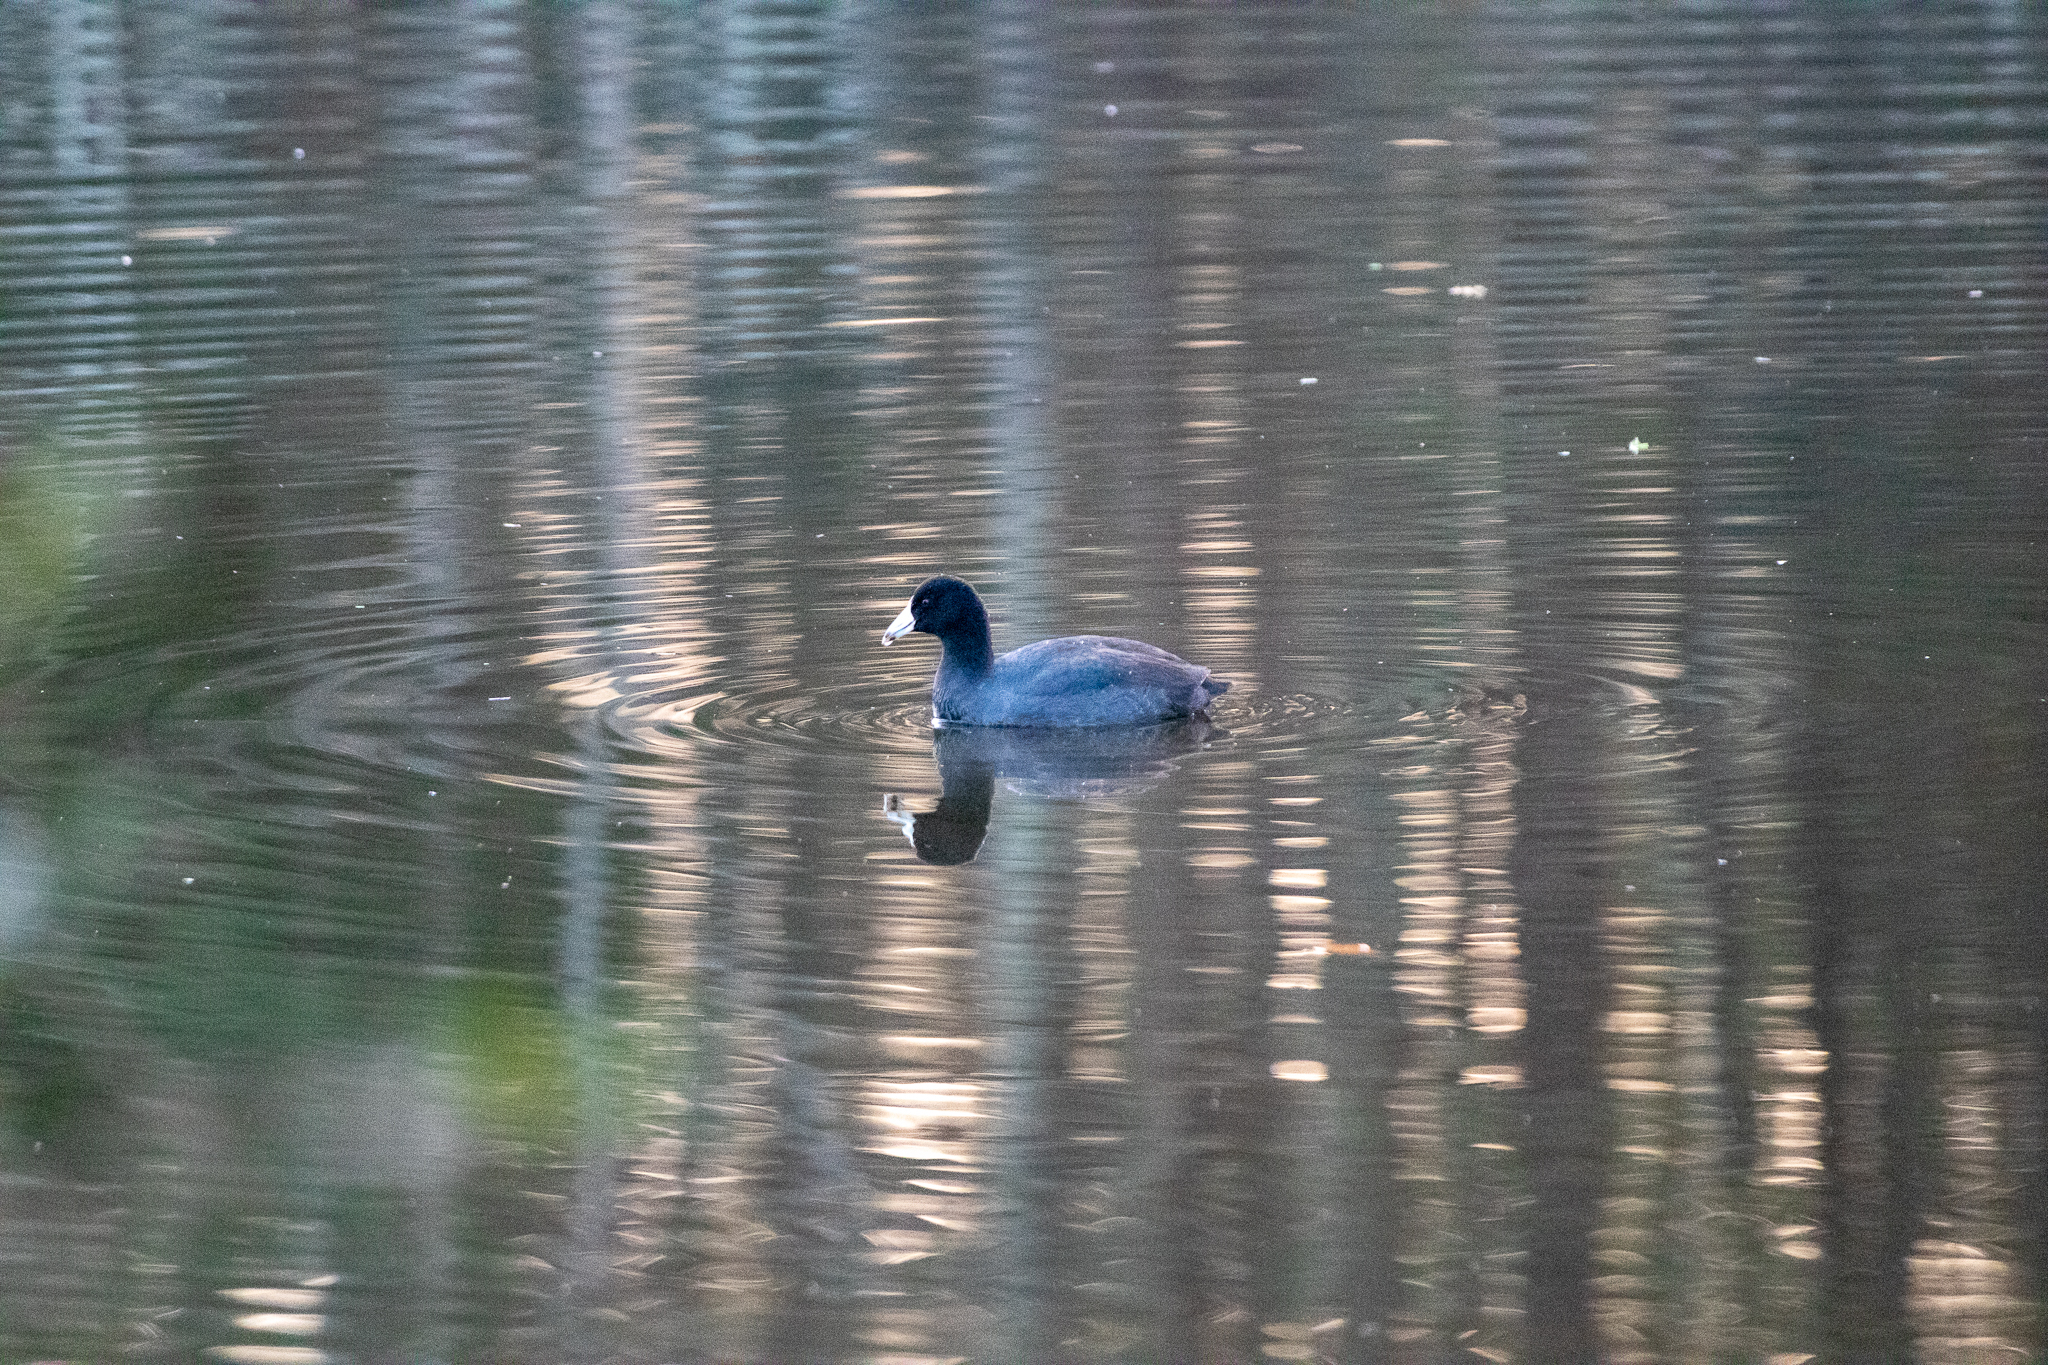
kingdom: Animalia
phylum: Chordata
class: Aves
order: Gruiformes
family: Rallidae
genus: Fulica
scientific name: Fulica americana
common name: American coot
